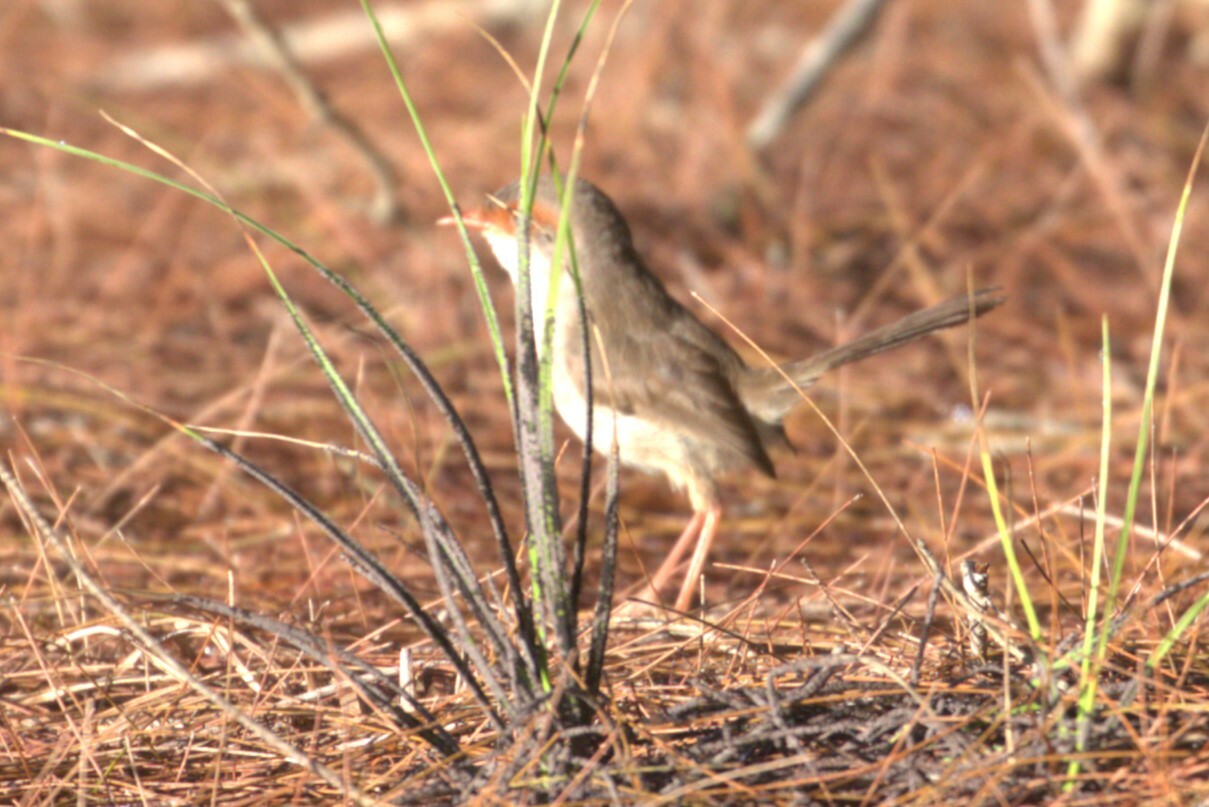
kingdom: Animalia
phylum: Chordata
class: Aves
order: Passeriformes
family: Maluridae
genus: Malurus
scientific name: Malurus cyaneus
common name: Superb fairywren
